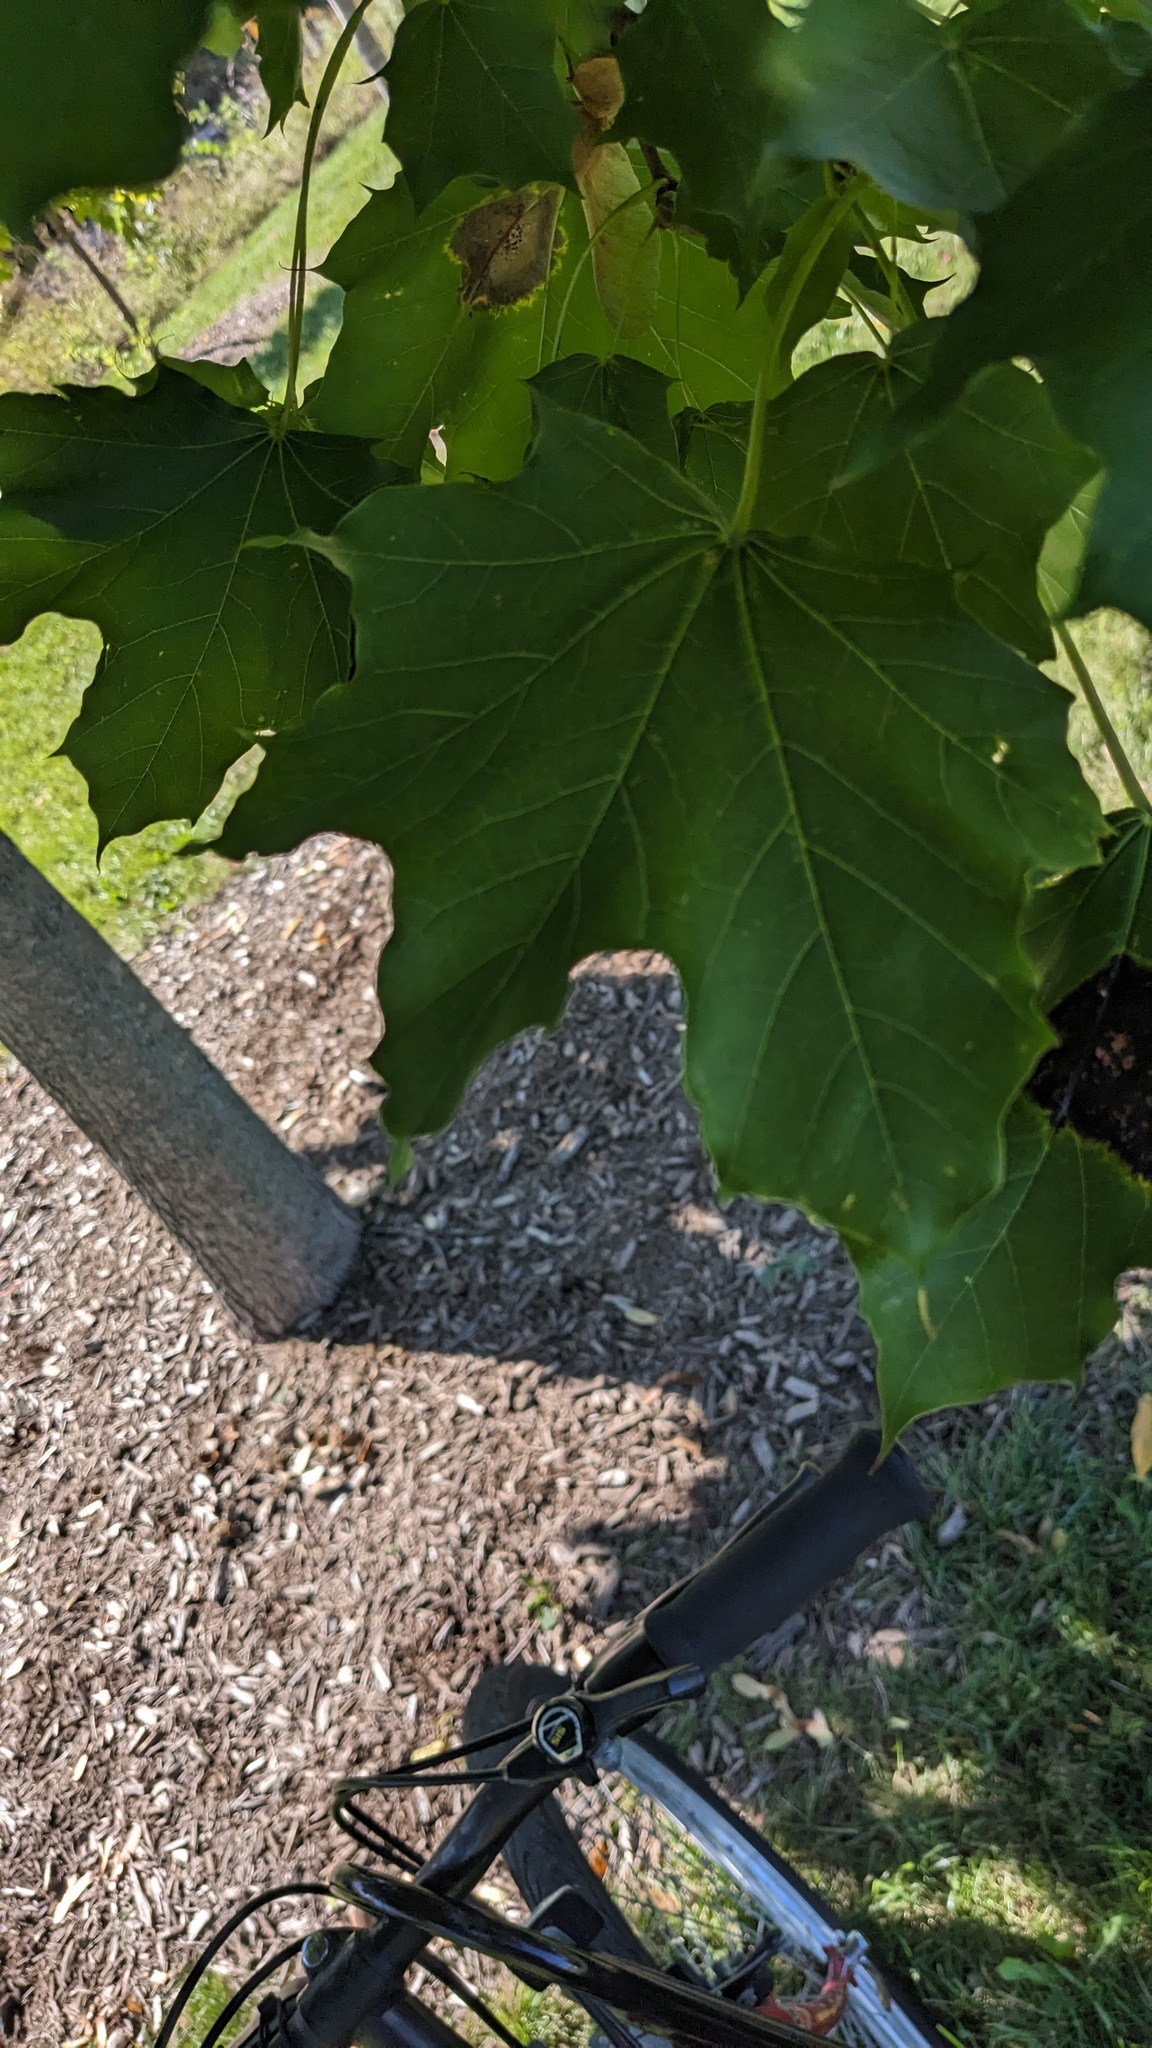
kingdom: Fungi
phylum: Ascomycota
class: Leotiomycetes
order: Rhytismatales
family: Rhytismataceae
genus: Rhytisma
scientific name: Rhytisma acerinum
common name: European tar spot
